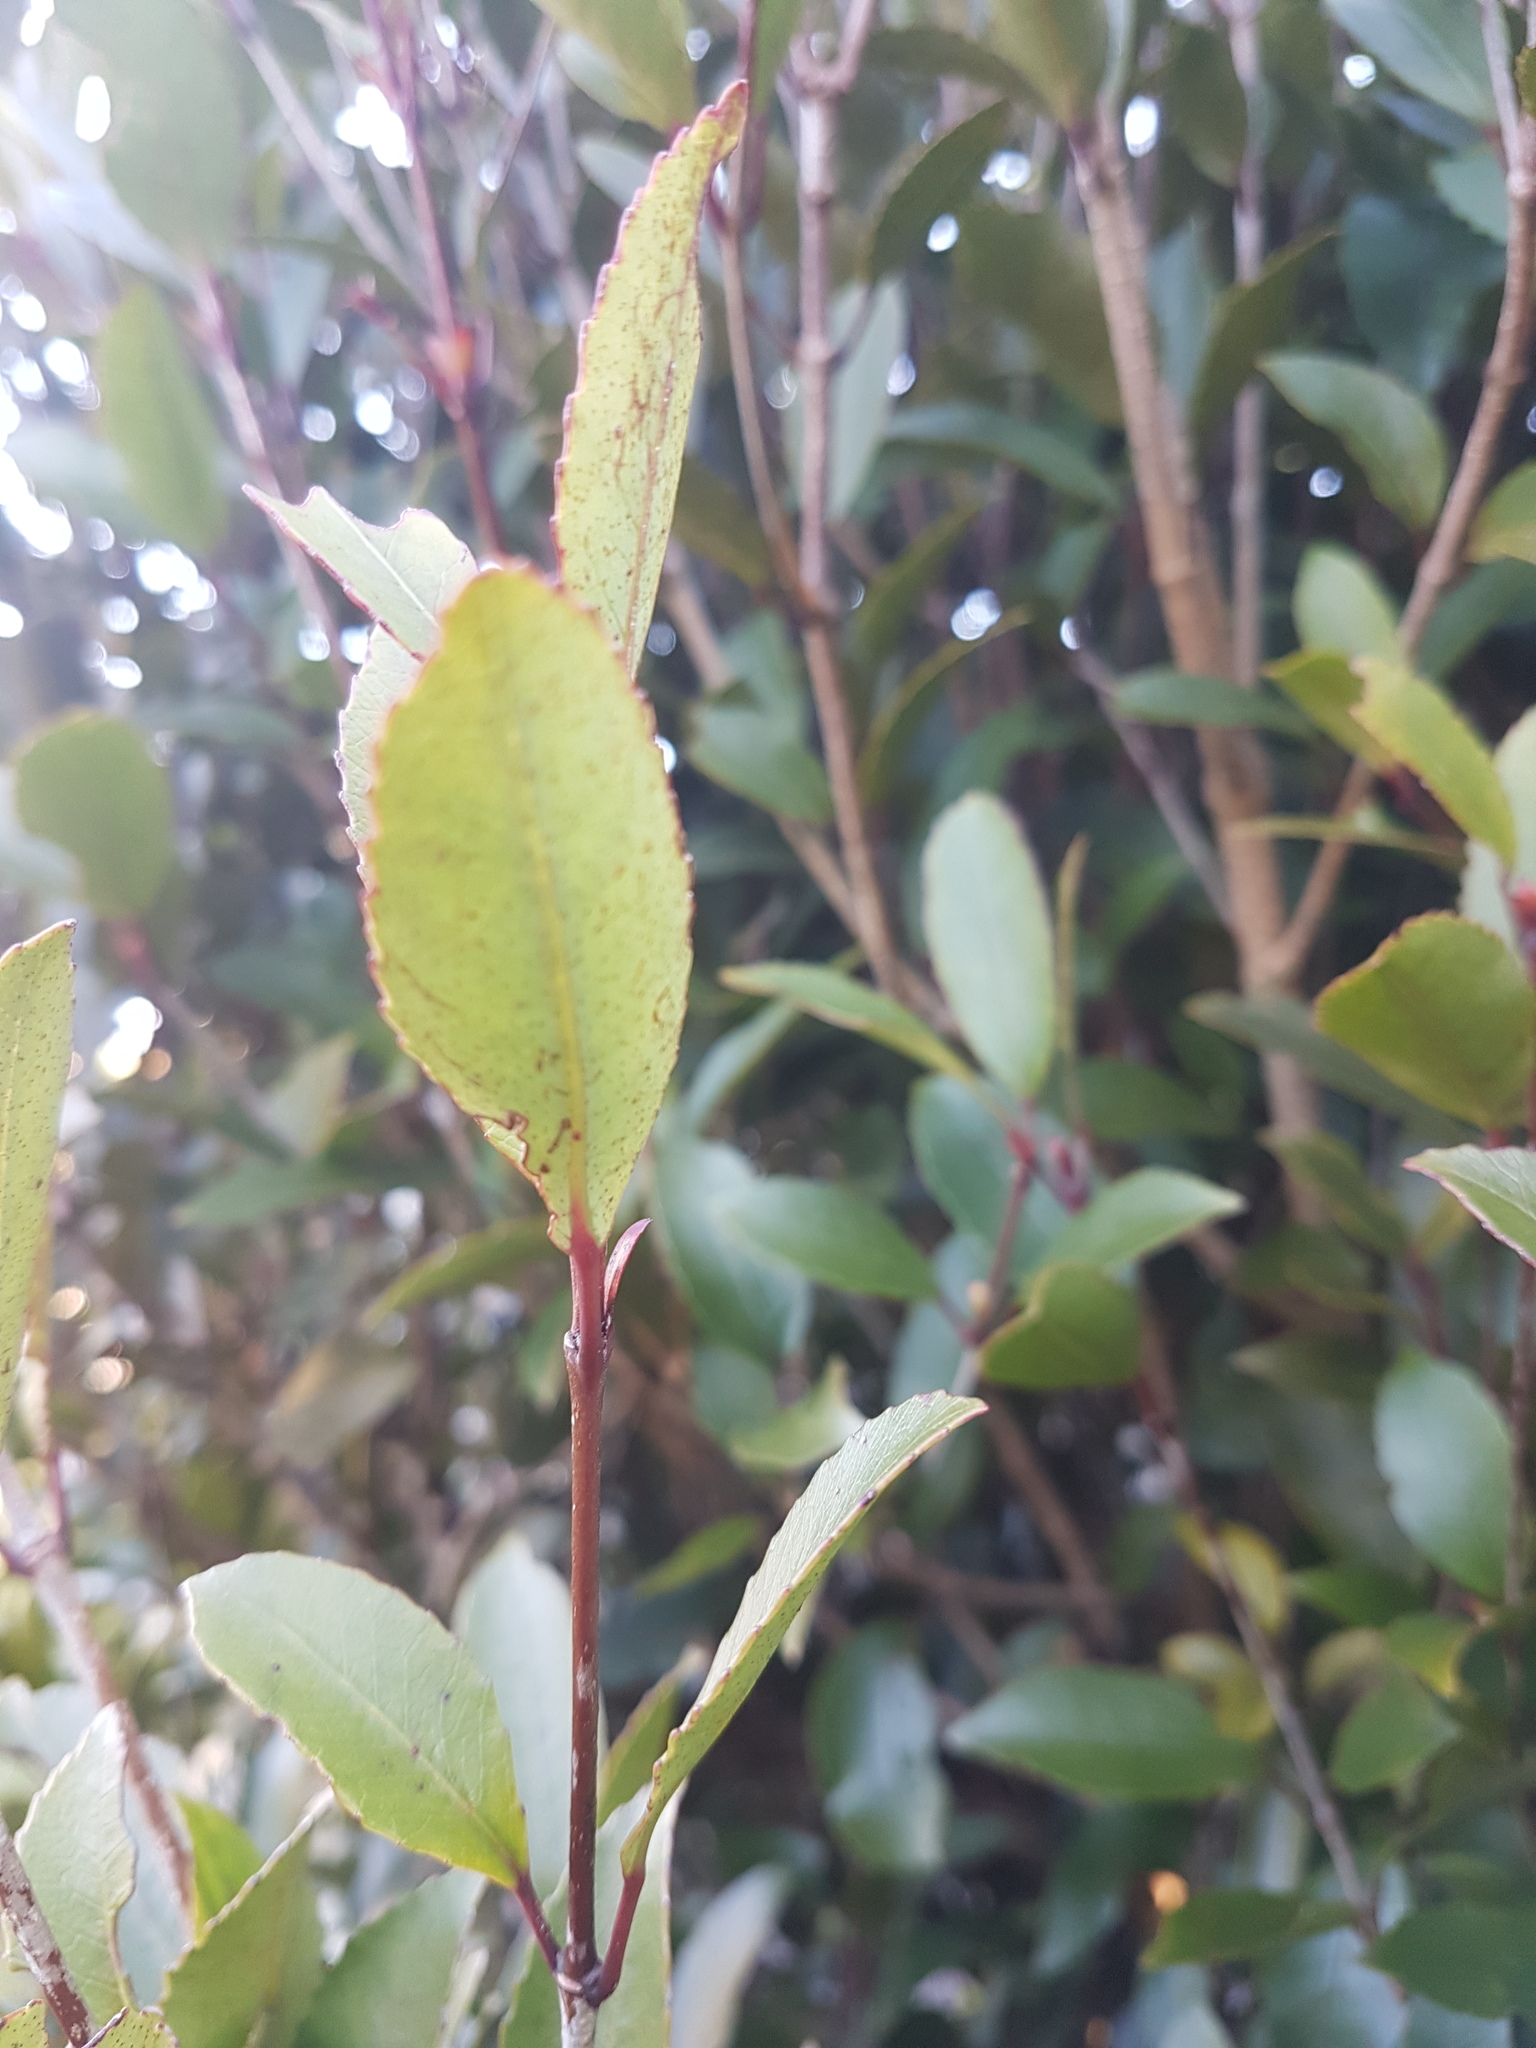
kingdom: Plantae
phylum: Tracheophyta
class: Magnoliopsida
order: Oxalidales
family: Cunoniaceae
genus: Pterophylla
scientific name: Pterophylla racemosa
